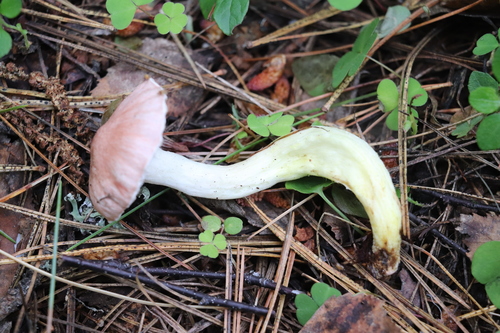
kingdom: Fungi
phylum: Basidiomycota
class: Agaricomycetes
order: Boletales
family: Gomphidiaceae
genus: Gomphidius
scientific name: Gomphidius flavipes
